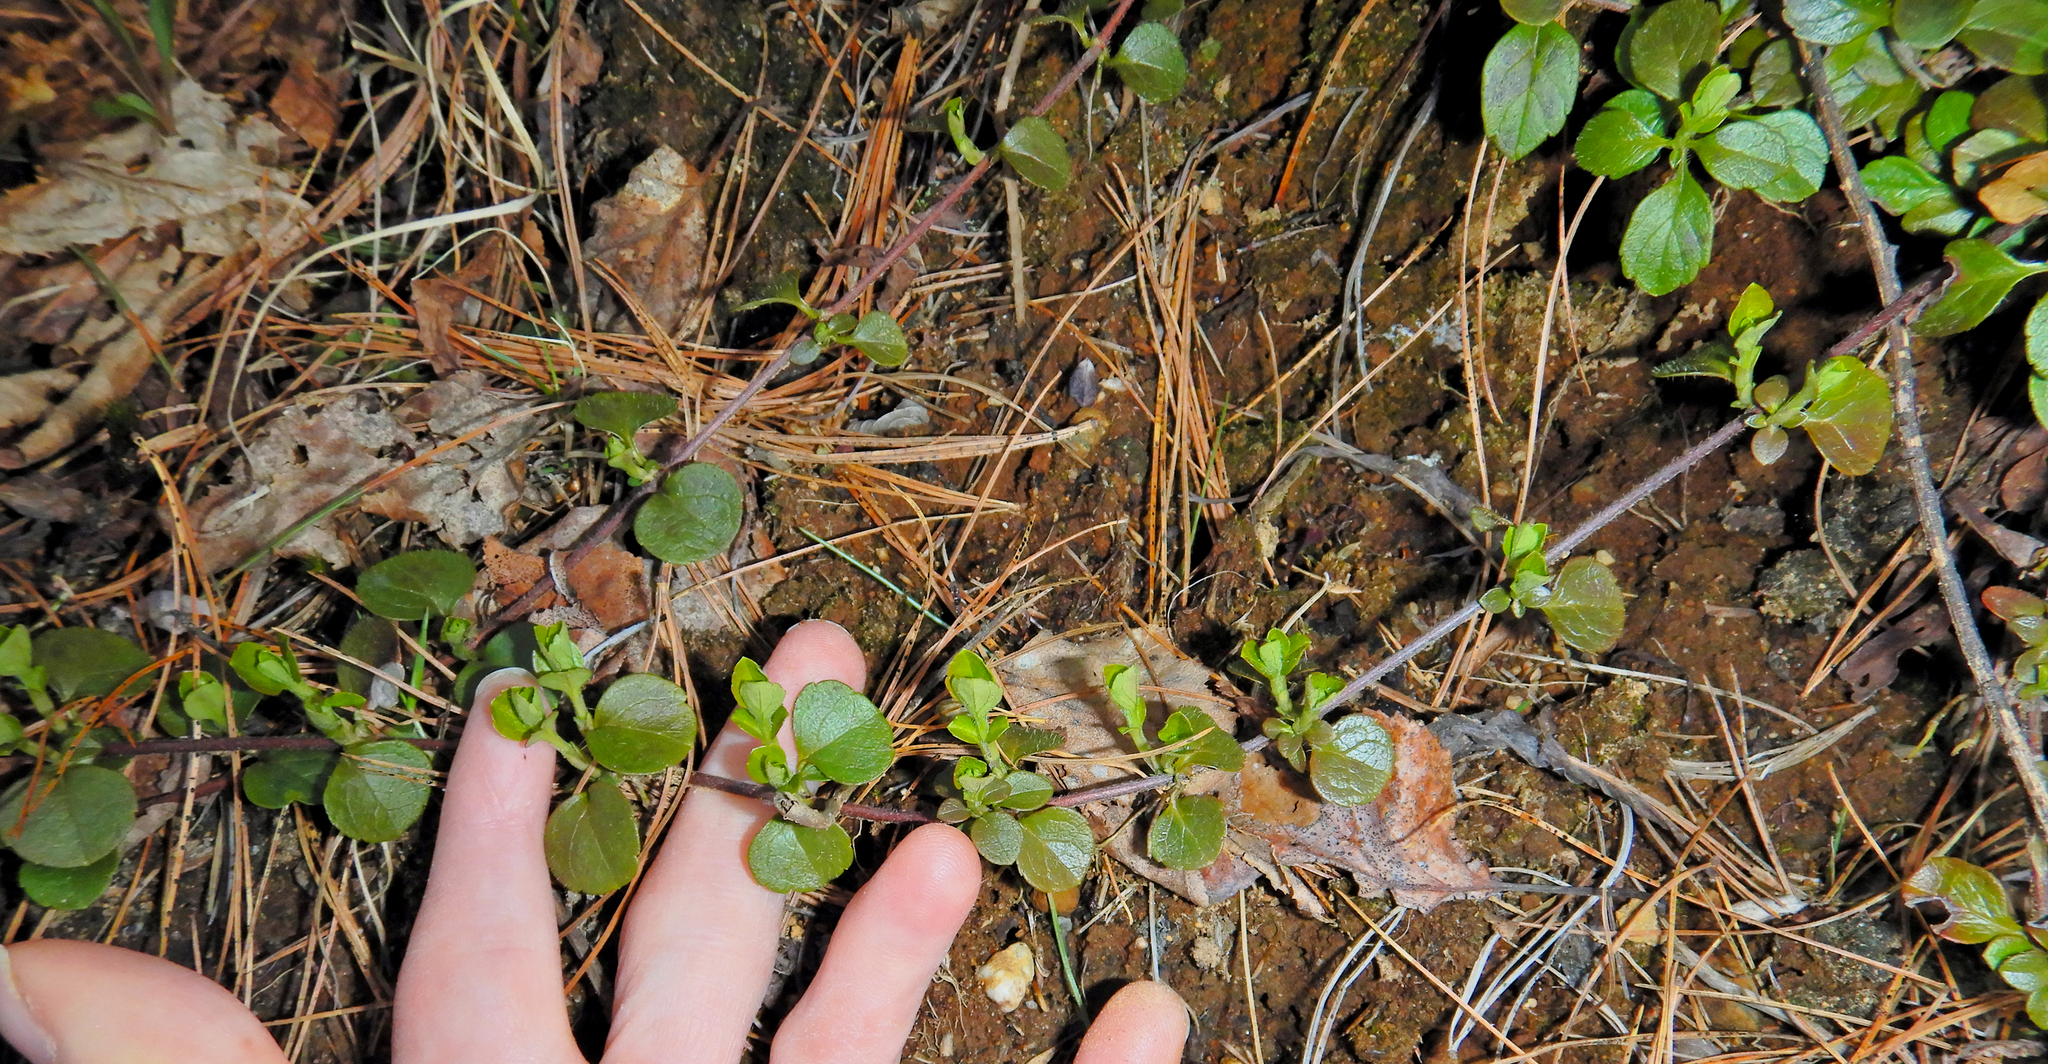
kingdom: Plantae
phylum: Tracheophyta
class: Magnoliopsida
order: Dipsacales
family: Caprifoliaceae
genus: Linnaea
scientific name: Linnaea borealis
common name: Twinflower
